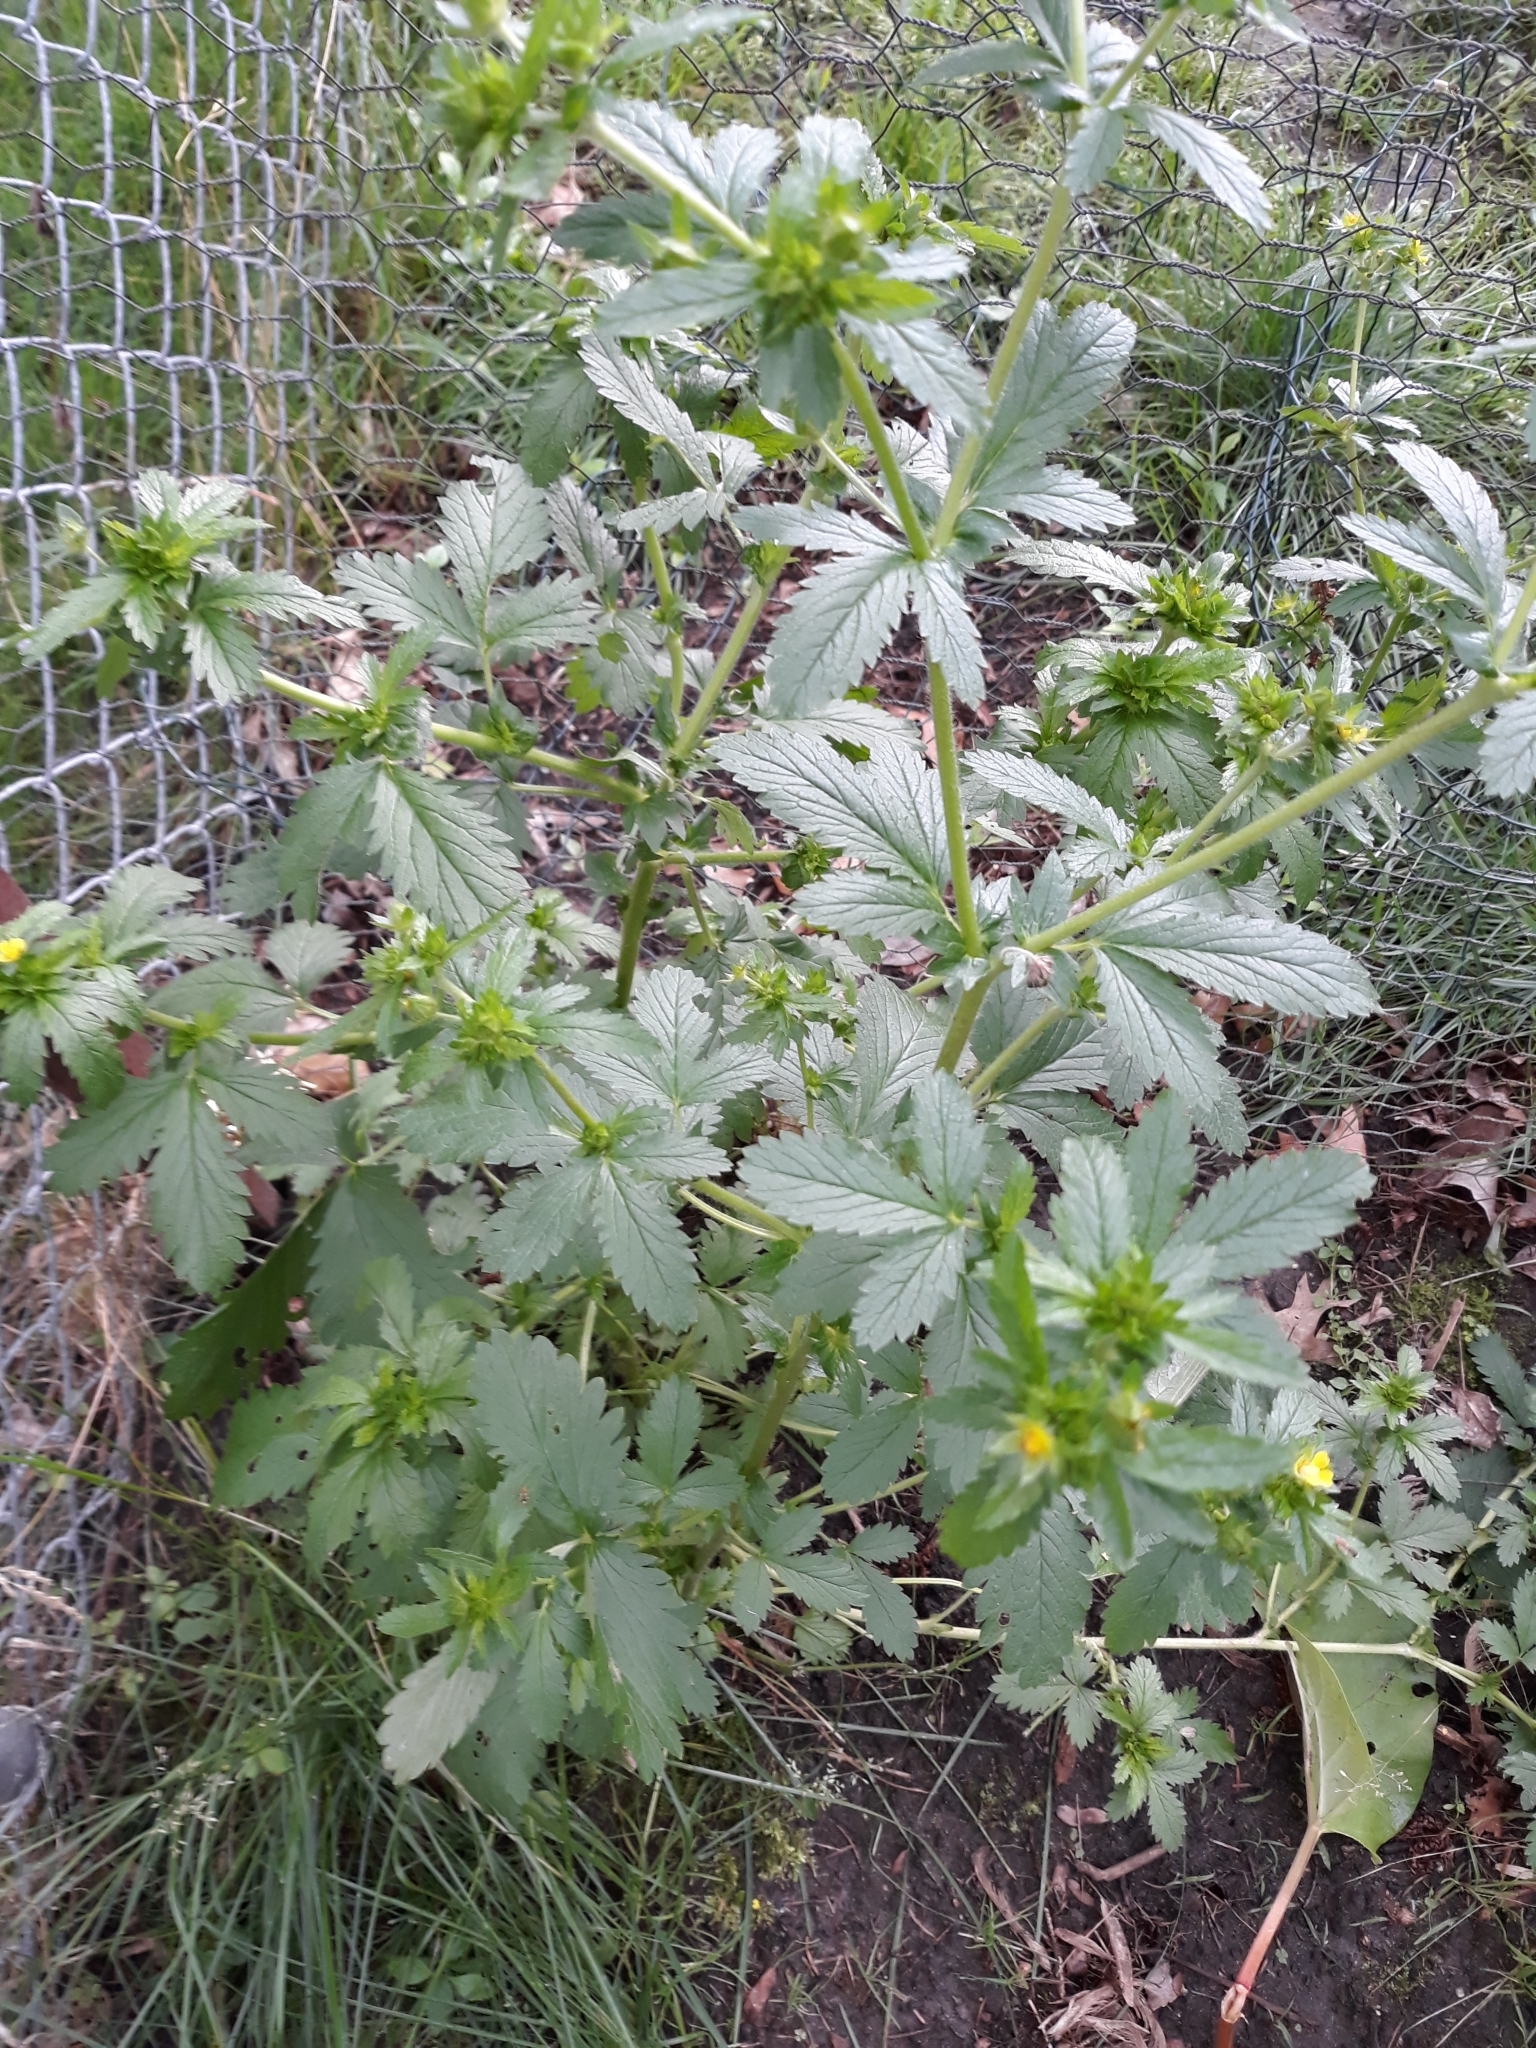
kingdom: Plantae
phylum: Tracheophyta
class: Magnoliopsida
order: Rosales
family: Rosaceae
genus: Potentilla
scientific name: Potentilla norvegica
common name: Ternate-leaved cinquefoil
